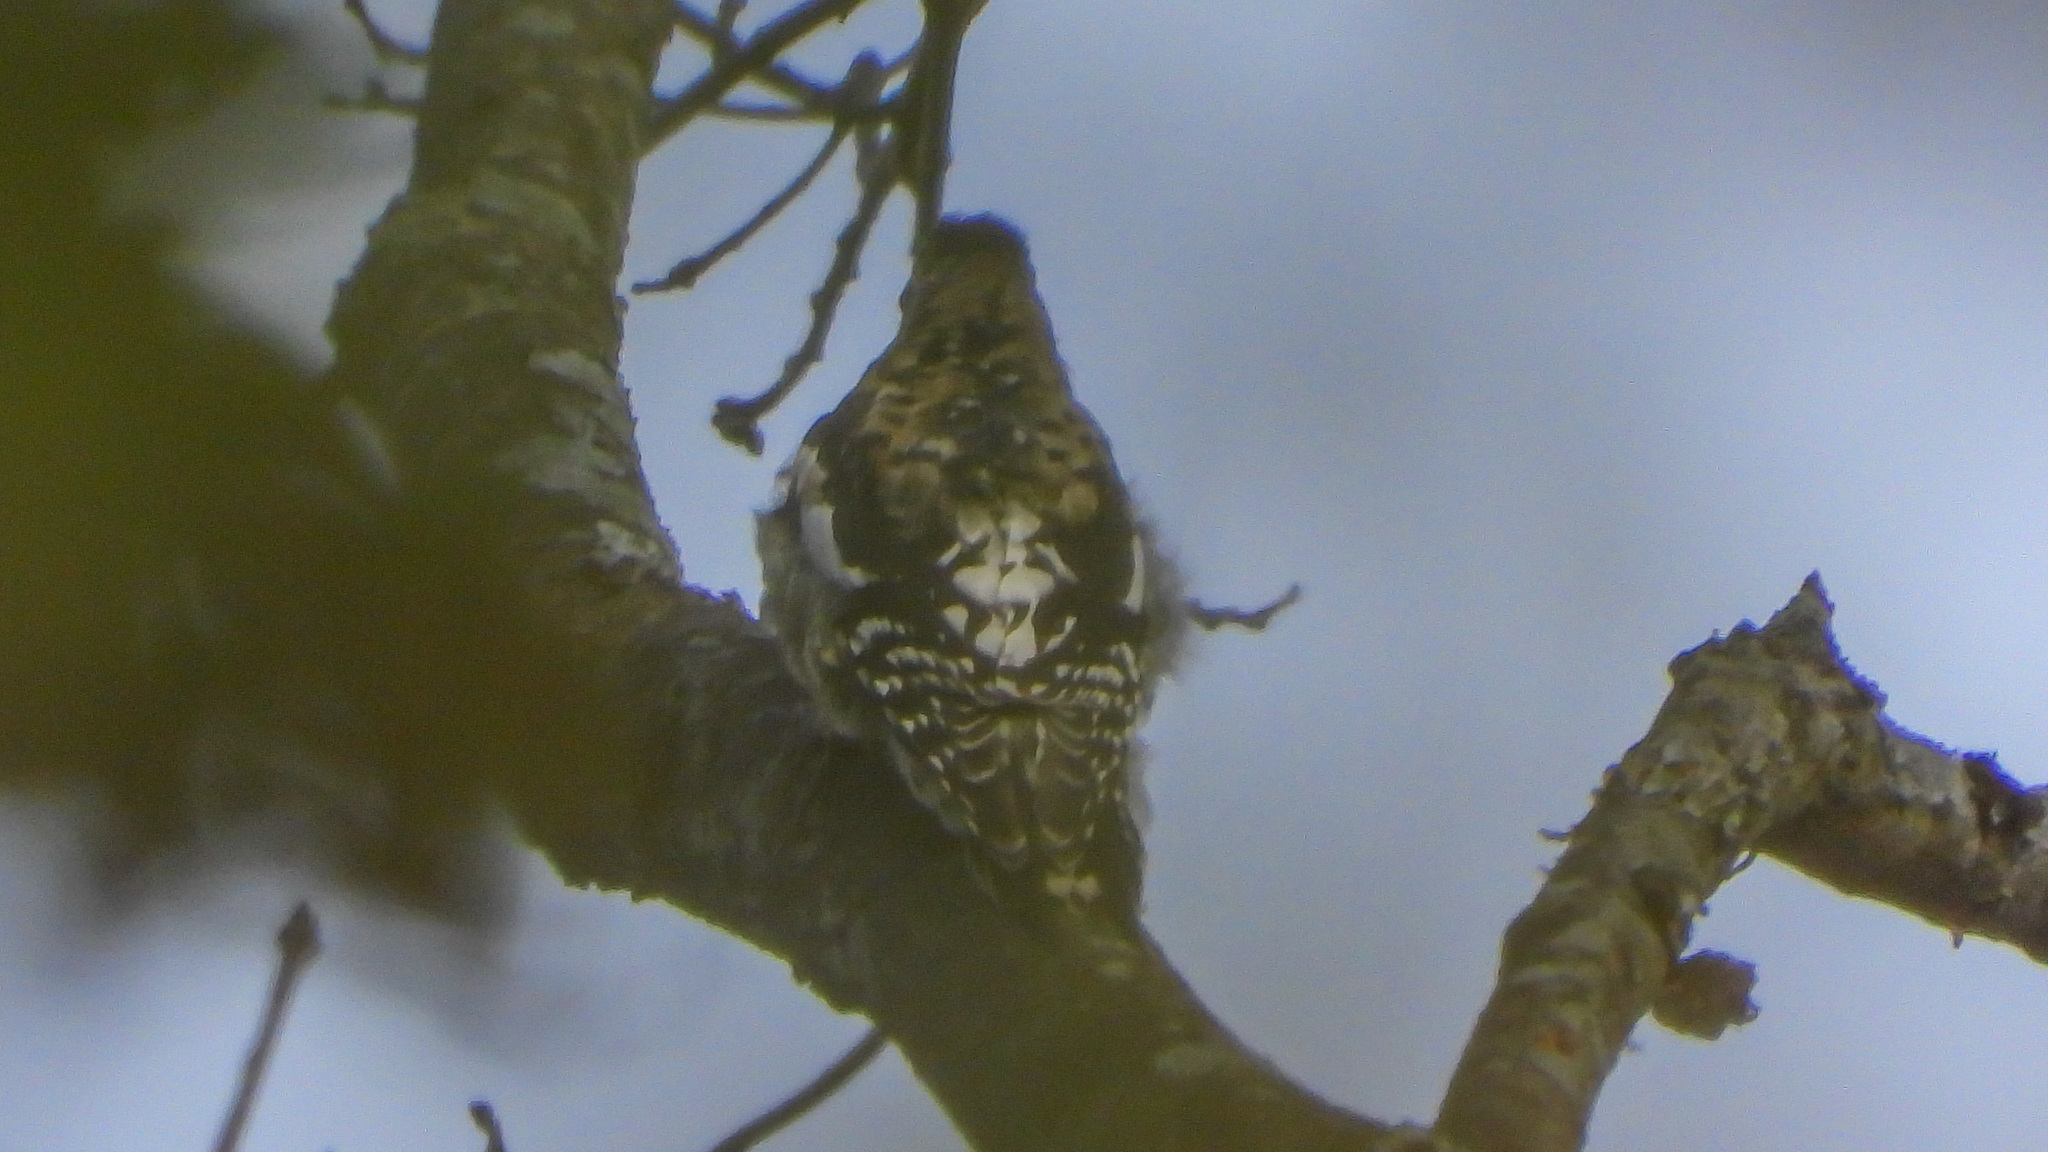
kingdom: Animalia
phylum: Chordata
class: Aves
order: Piciformes
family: Picidae
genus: Sphyrapicus
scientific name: Sphyrapicus varius
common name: Yellow-bellied sapsucker
